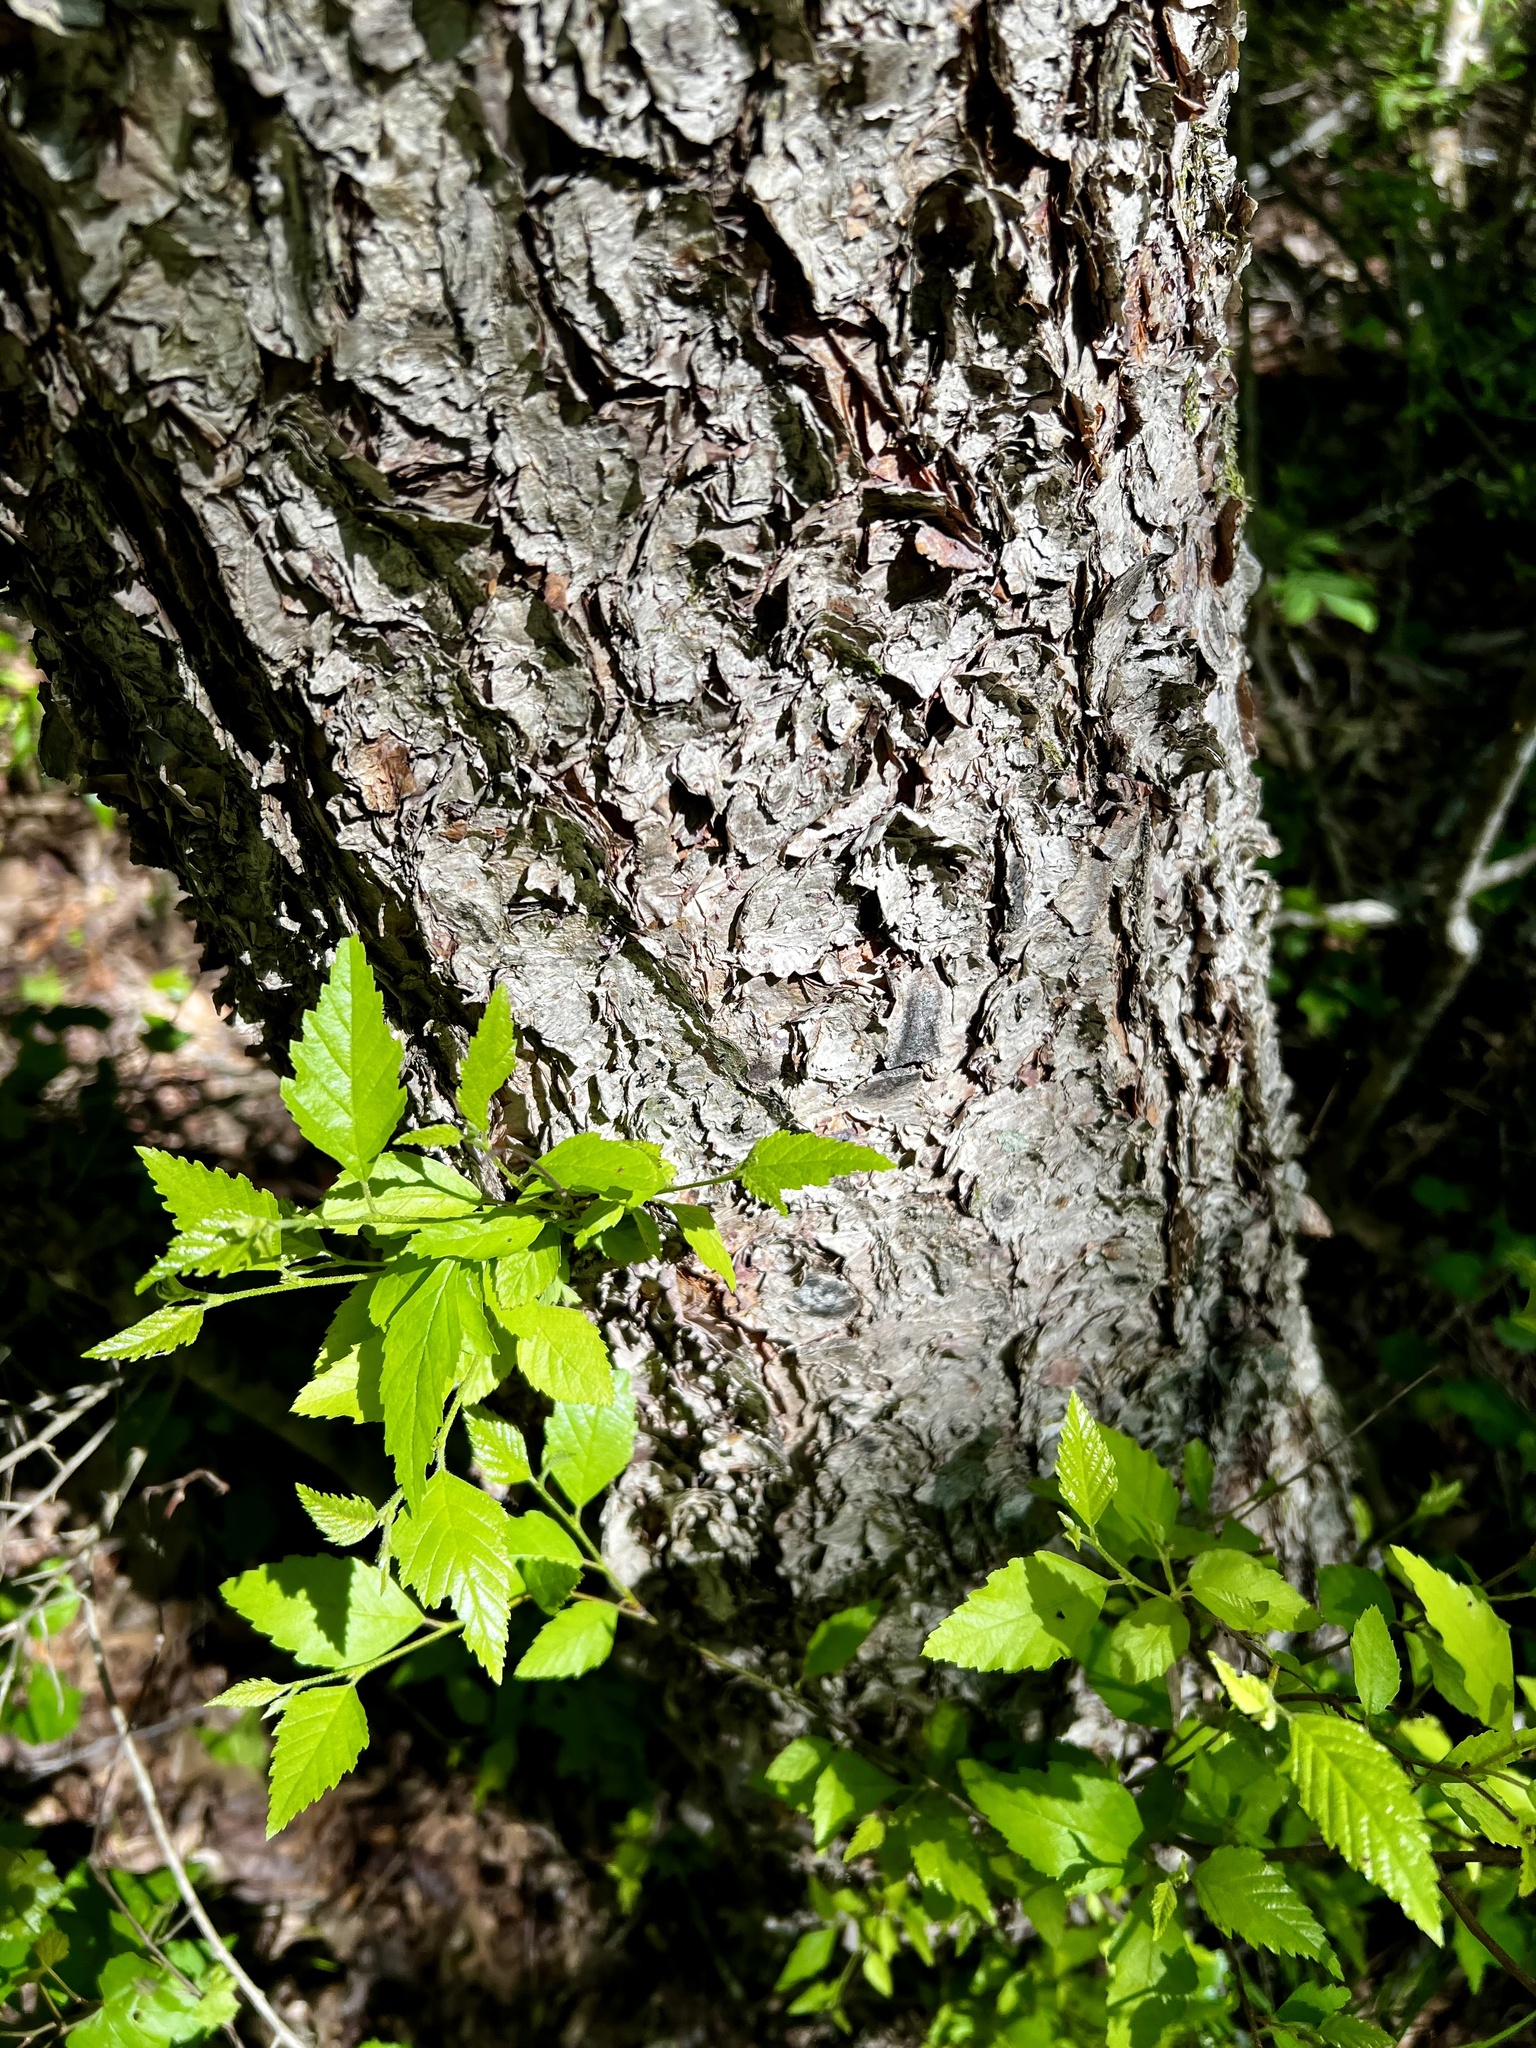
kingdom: Plantae
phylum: Tracheophyta
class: Magnoliopsida
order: Fagales
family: Betulaceae
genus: Betula
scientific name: Betula nigra
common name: Black birch
